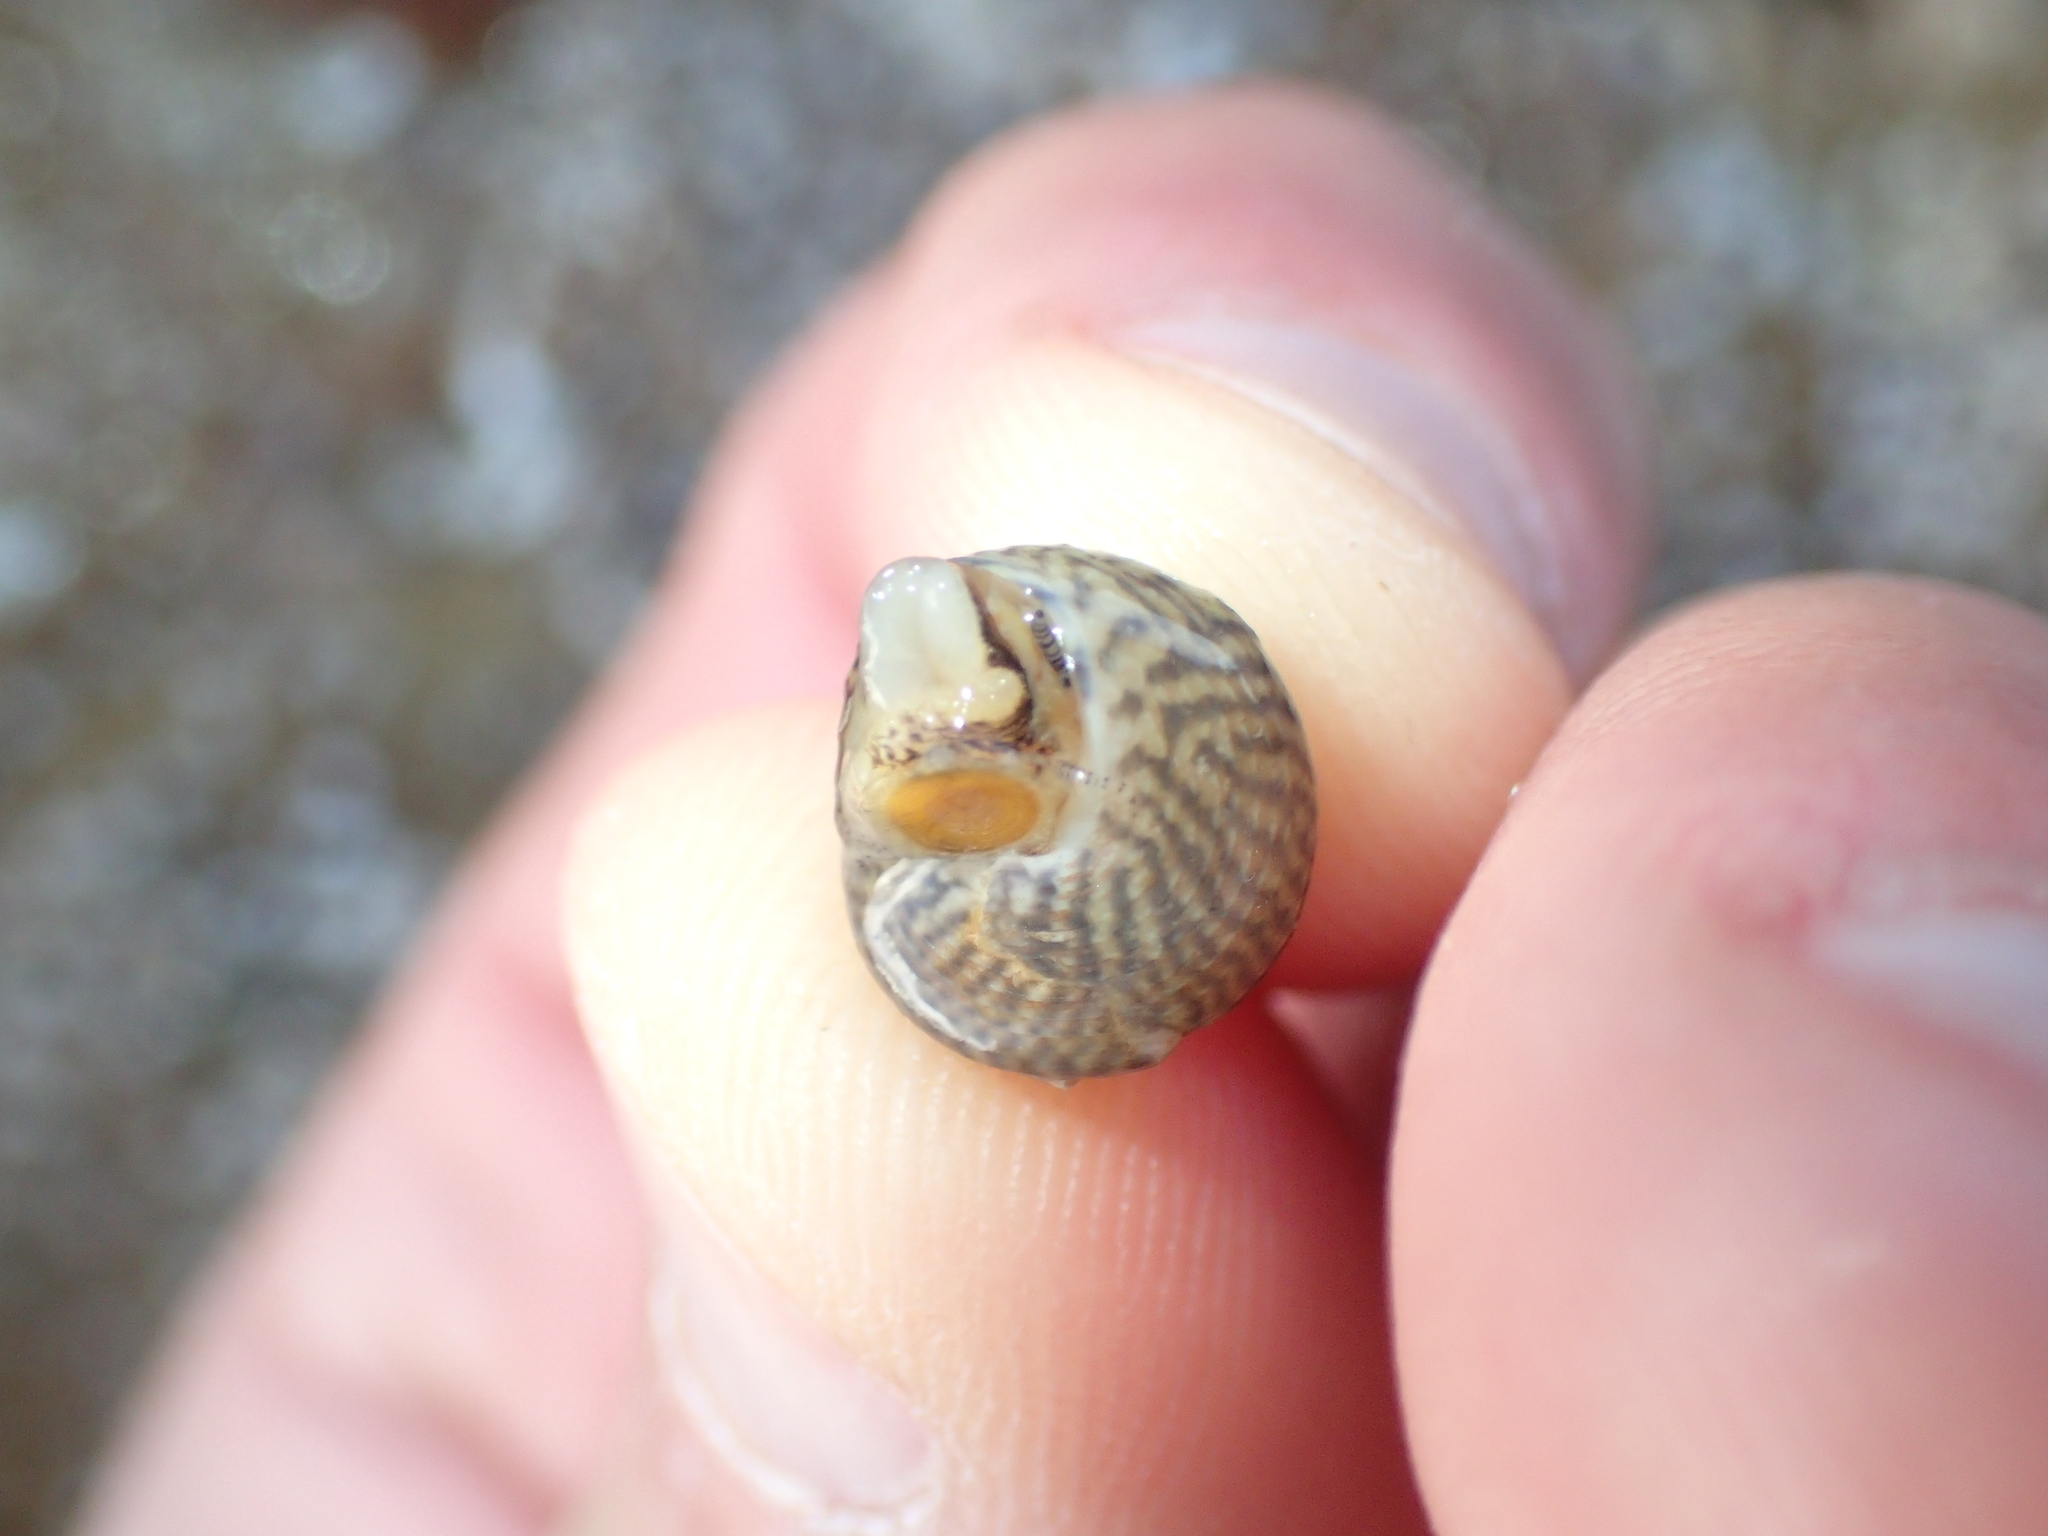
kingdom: Animalia
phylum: Mollusca
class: Gastropoda
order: Trochida
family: Trochidae
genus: Steromphala
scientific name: Steromphala cineraria
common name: Grey top shell
